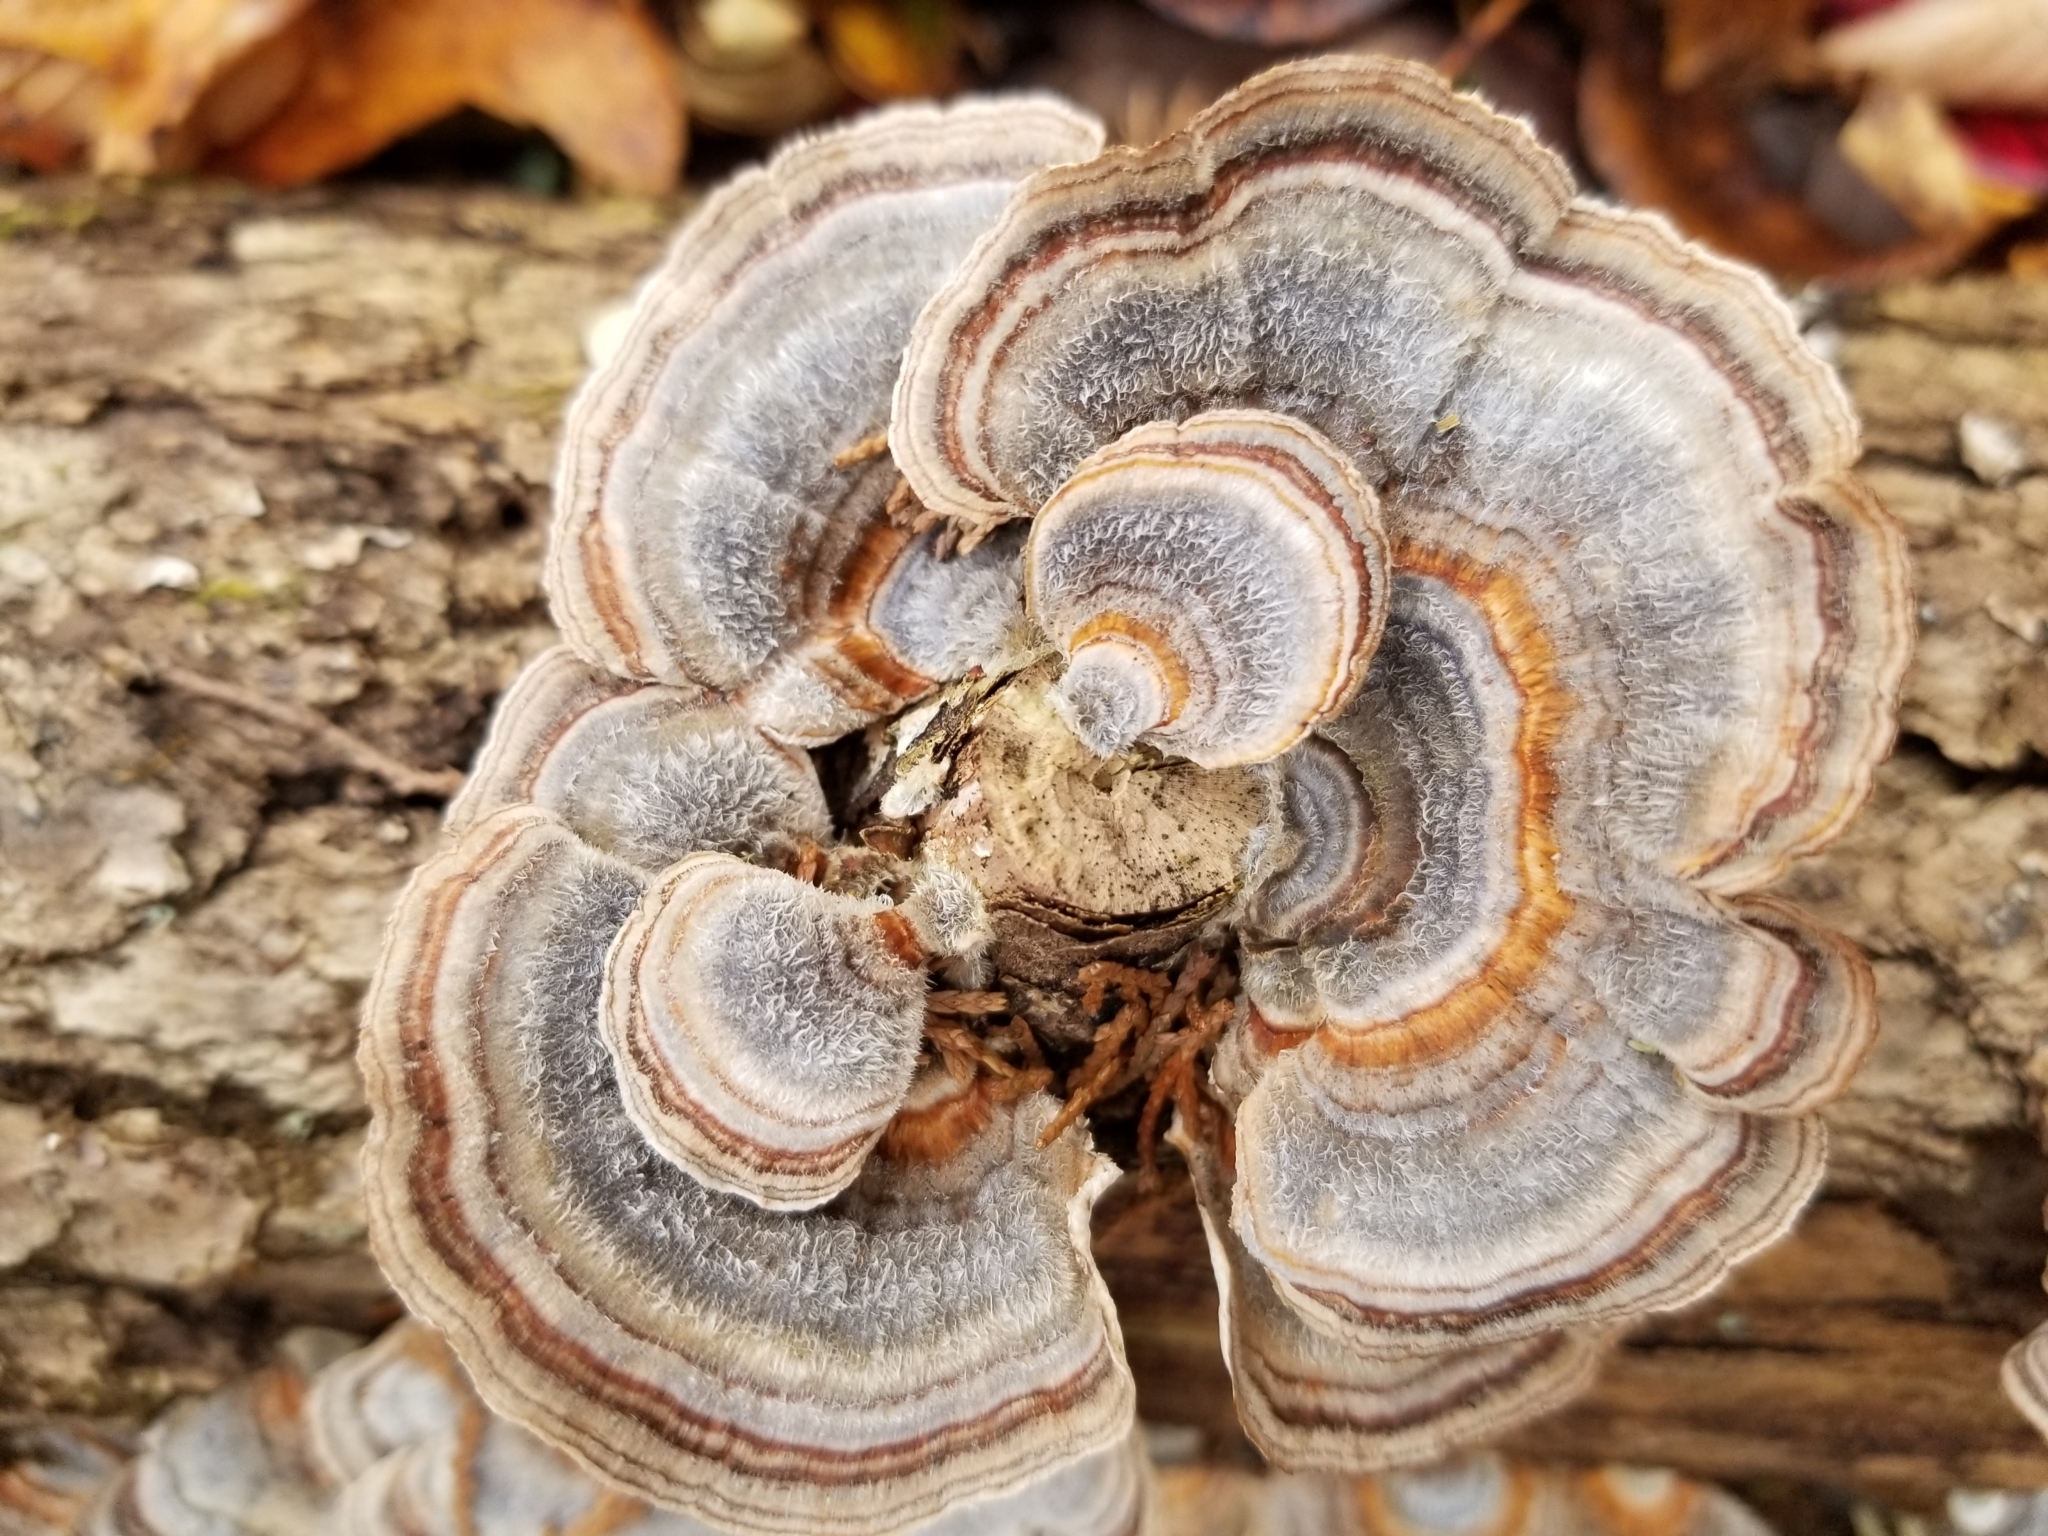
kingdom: Fungi
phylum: Basidiomycota
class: Agaricomycetes
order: Polyporales
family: Polyporaceae
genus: Trametes
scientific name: Trametes versicolor
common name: Turkeytail
